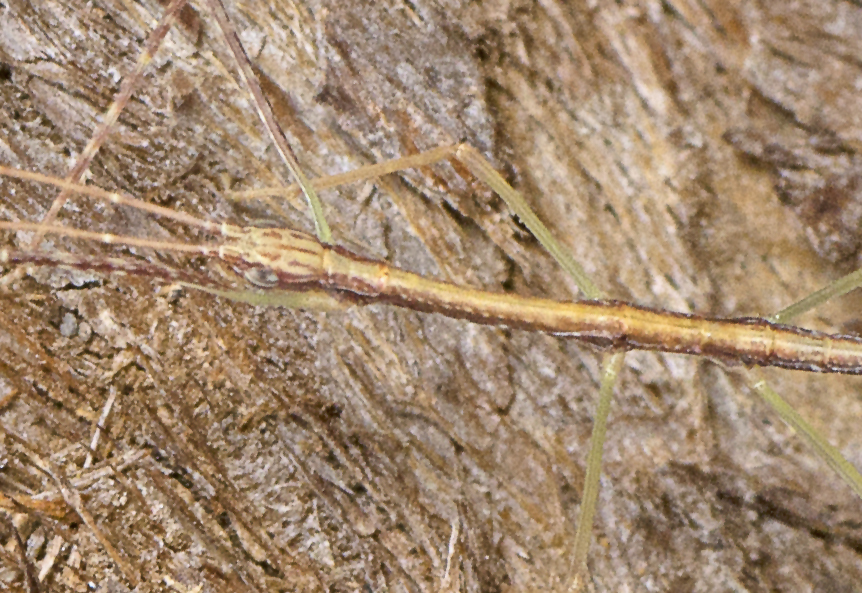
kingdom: Animalia
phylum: Arthropoda
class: Insecta
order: Phasmida
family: Lonchodidae
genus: Austrosipyloidea
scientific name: Austrosipyloidea carterus
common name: Black-striped stick-insect
